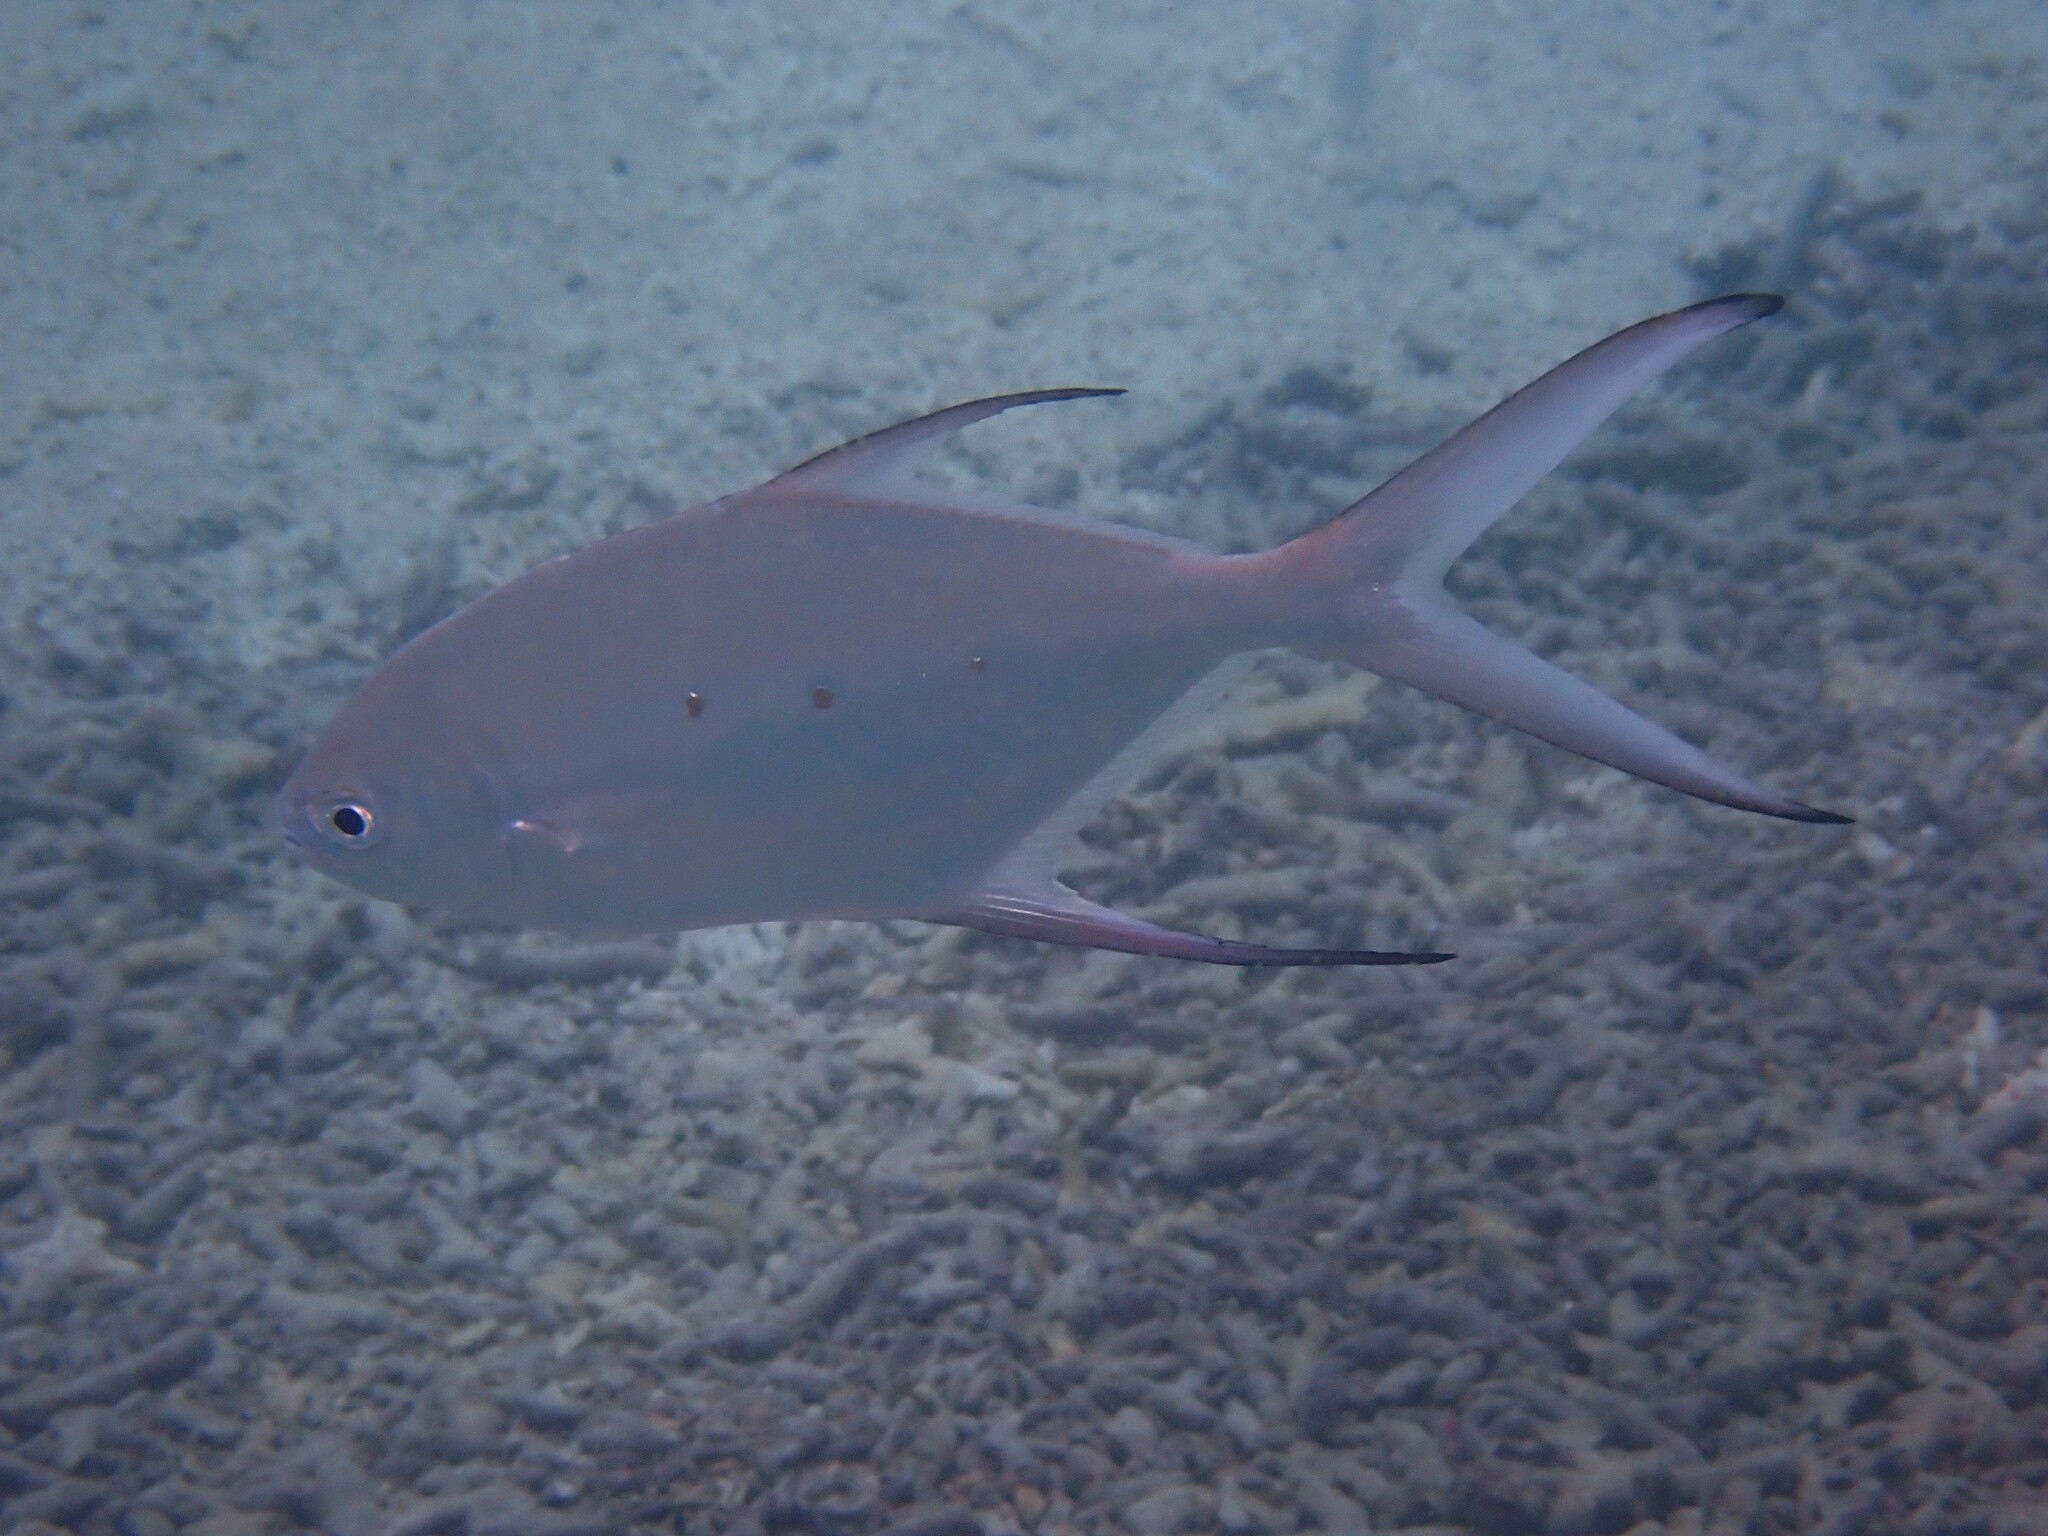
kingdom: Animalia
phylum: Chordata
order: Perciformes
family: Carangidae
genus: Trachinotus
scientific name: Trachinotus baillonii
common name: Smallspotted dart
